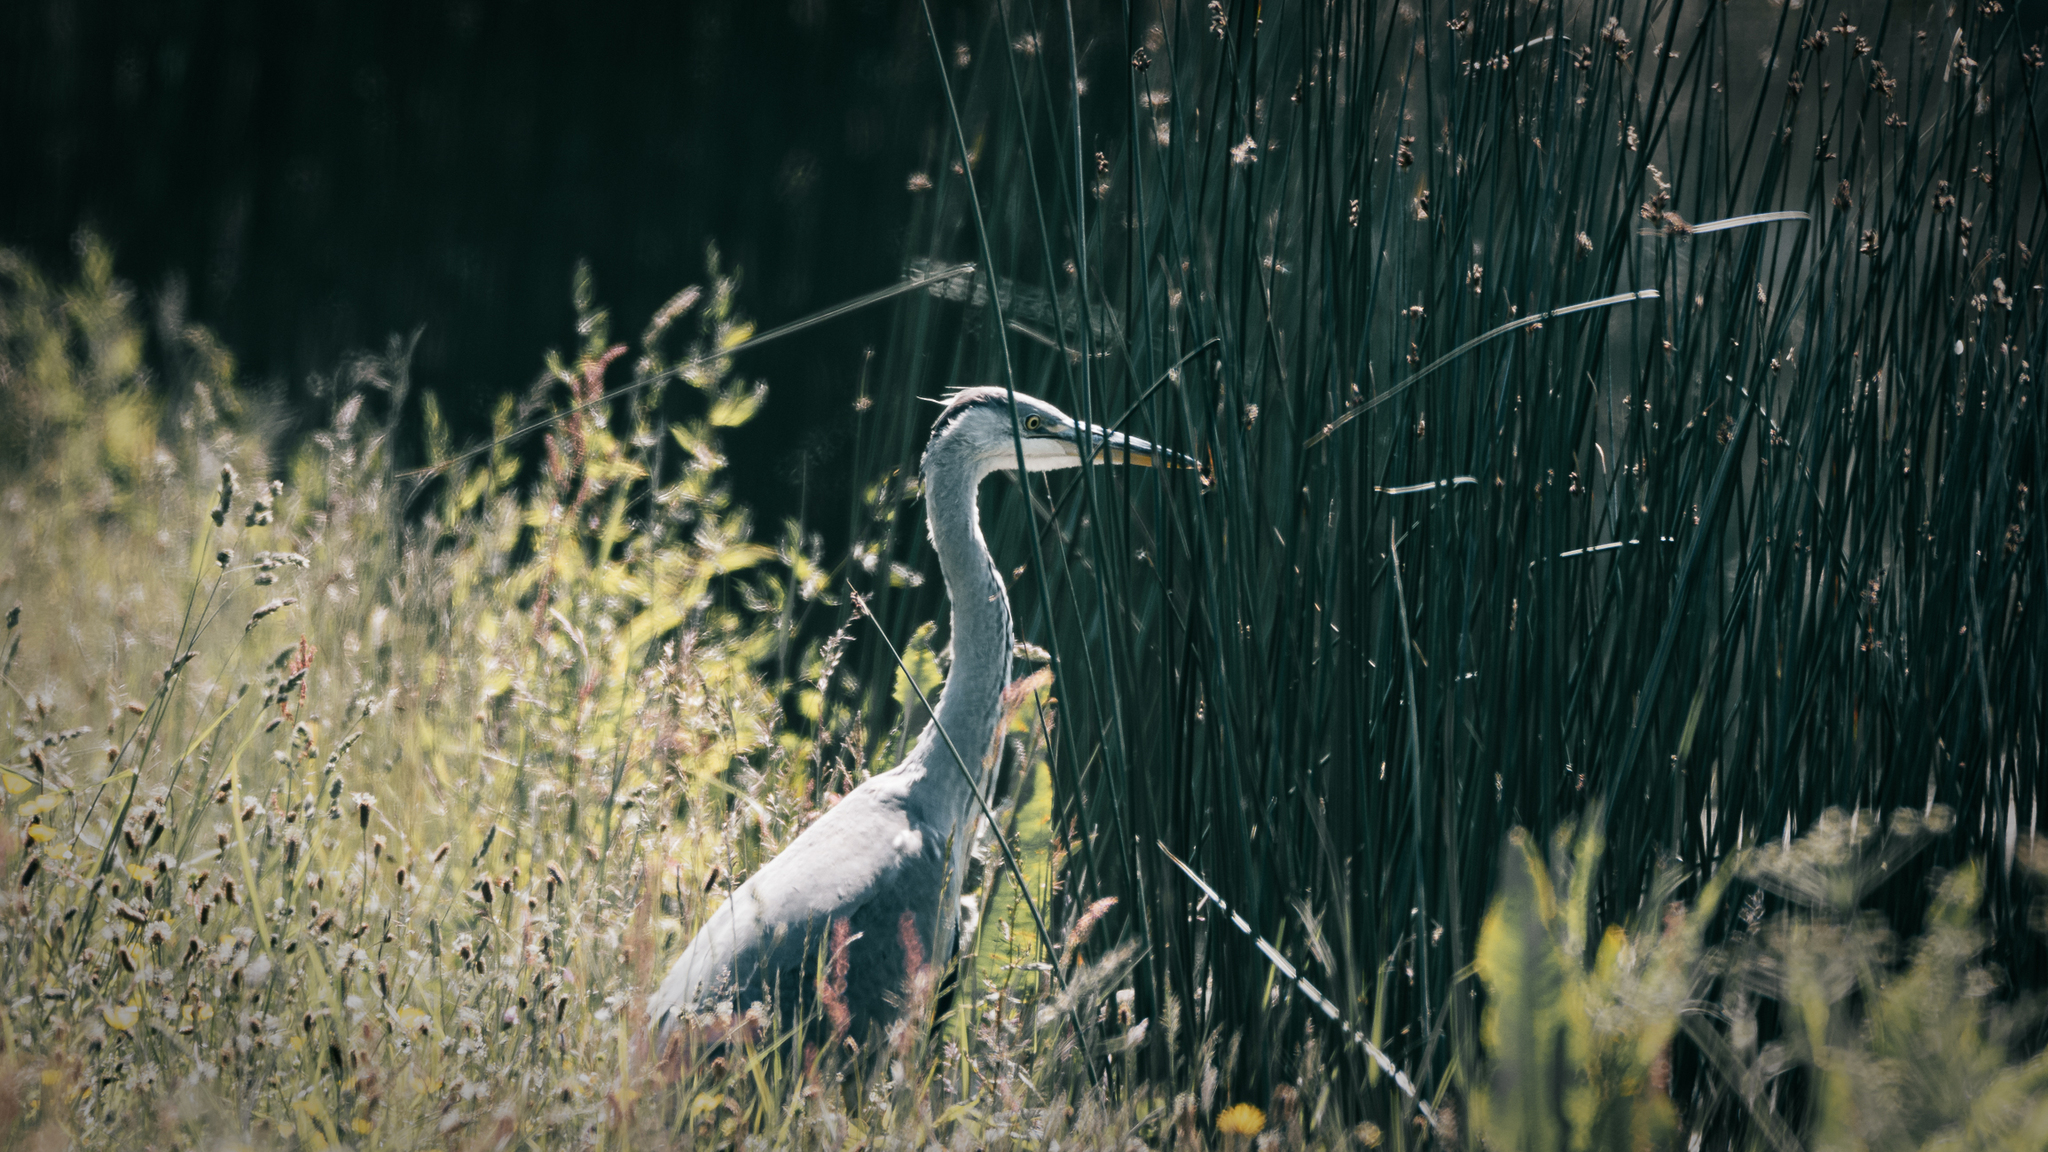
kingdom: Animalia
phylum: Chordata
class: Aves
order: Pelecaniformes
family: Ardeidae
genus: Ardea
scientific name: Ardea cinerea
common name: Grey heron
